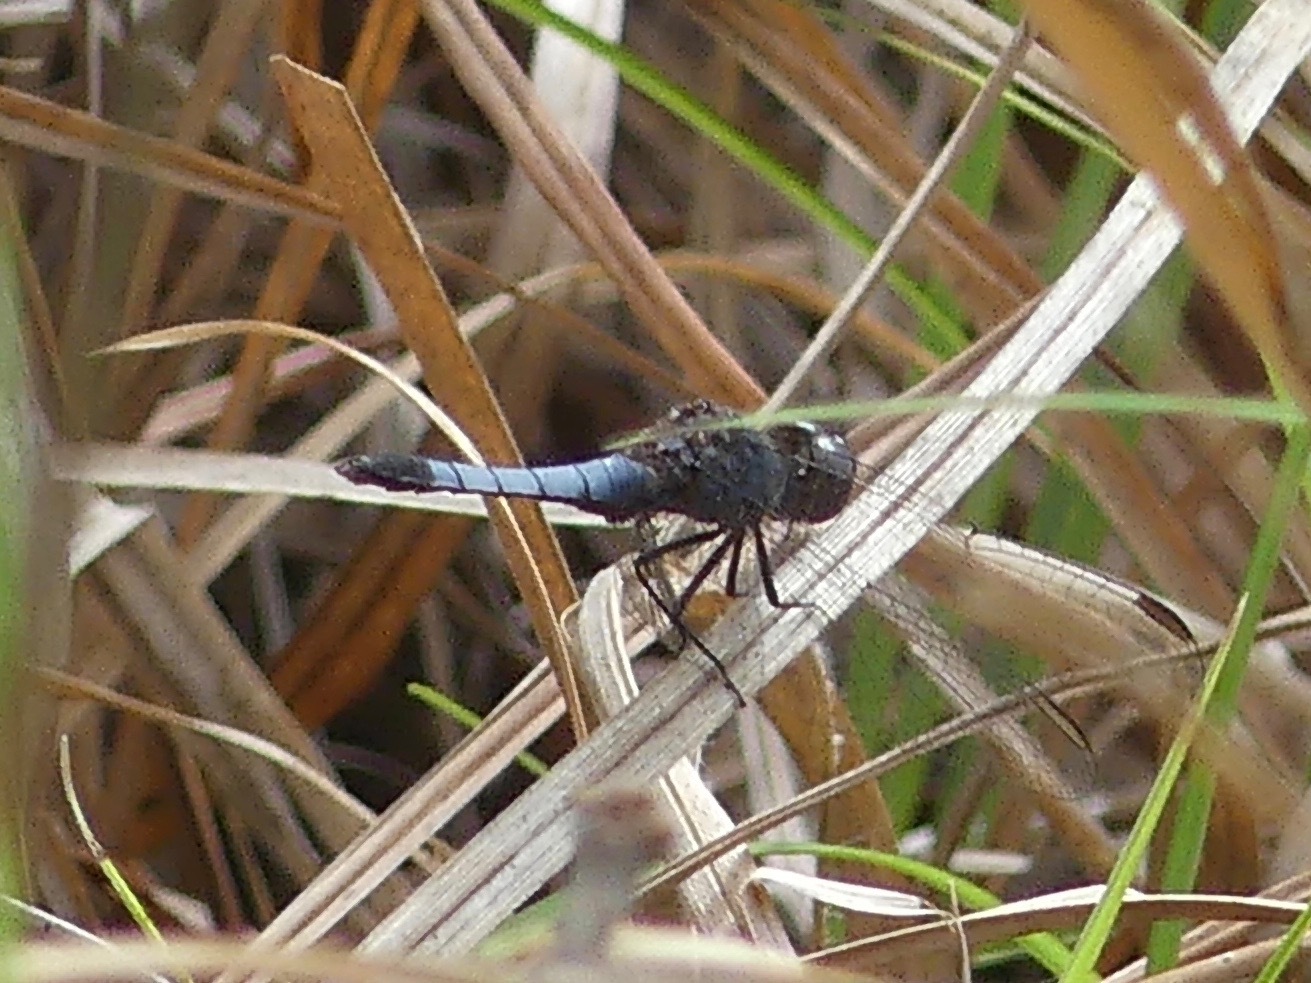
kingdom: Animalia
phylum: Arthropoda
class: Insecta
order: Odonata
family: Libellulidae
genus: Erythrodiplax
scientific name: Erythrodiplax minuscula
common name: Little blue dragonlet
